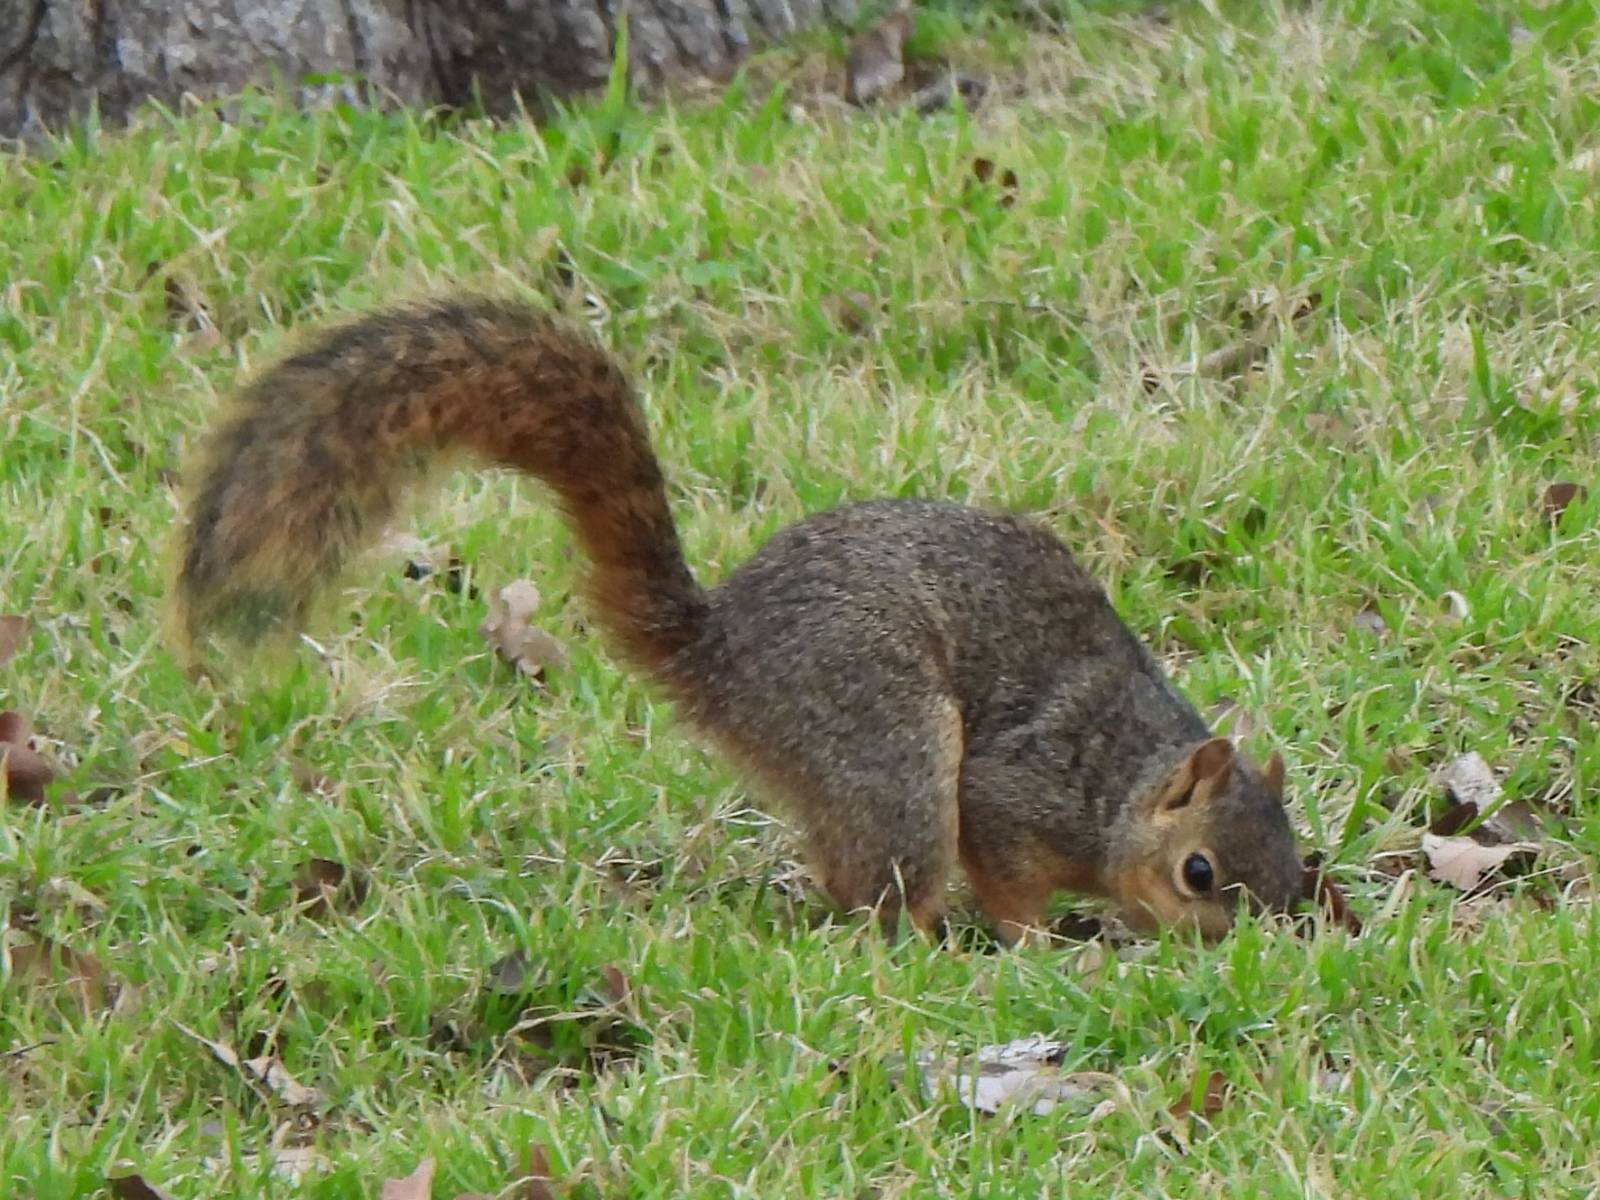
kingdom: Animalia
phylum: Chordata
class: Mammalia
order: Rodentia
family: Sciuridae
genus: Sciurus
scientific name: Sciurus niger
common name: Fox squirrel
